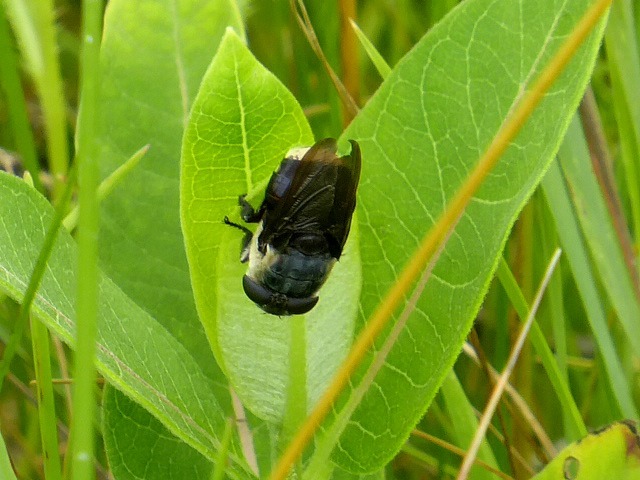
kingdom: Animalia
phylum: Arthropoda
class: Insecta
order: Diptera
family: Oestridae
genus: Cuterebra
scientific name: Cuterebra fontinella
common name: Mouse bot fly
